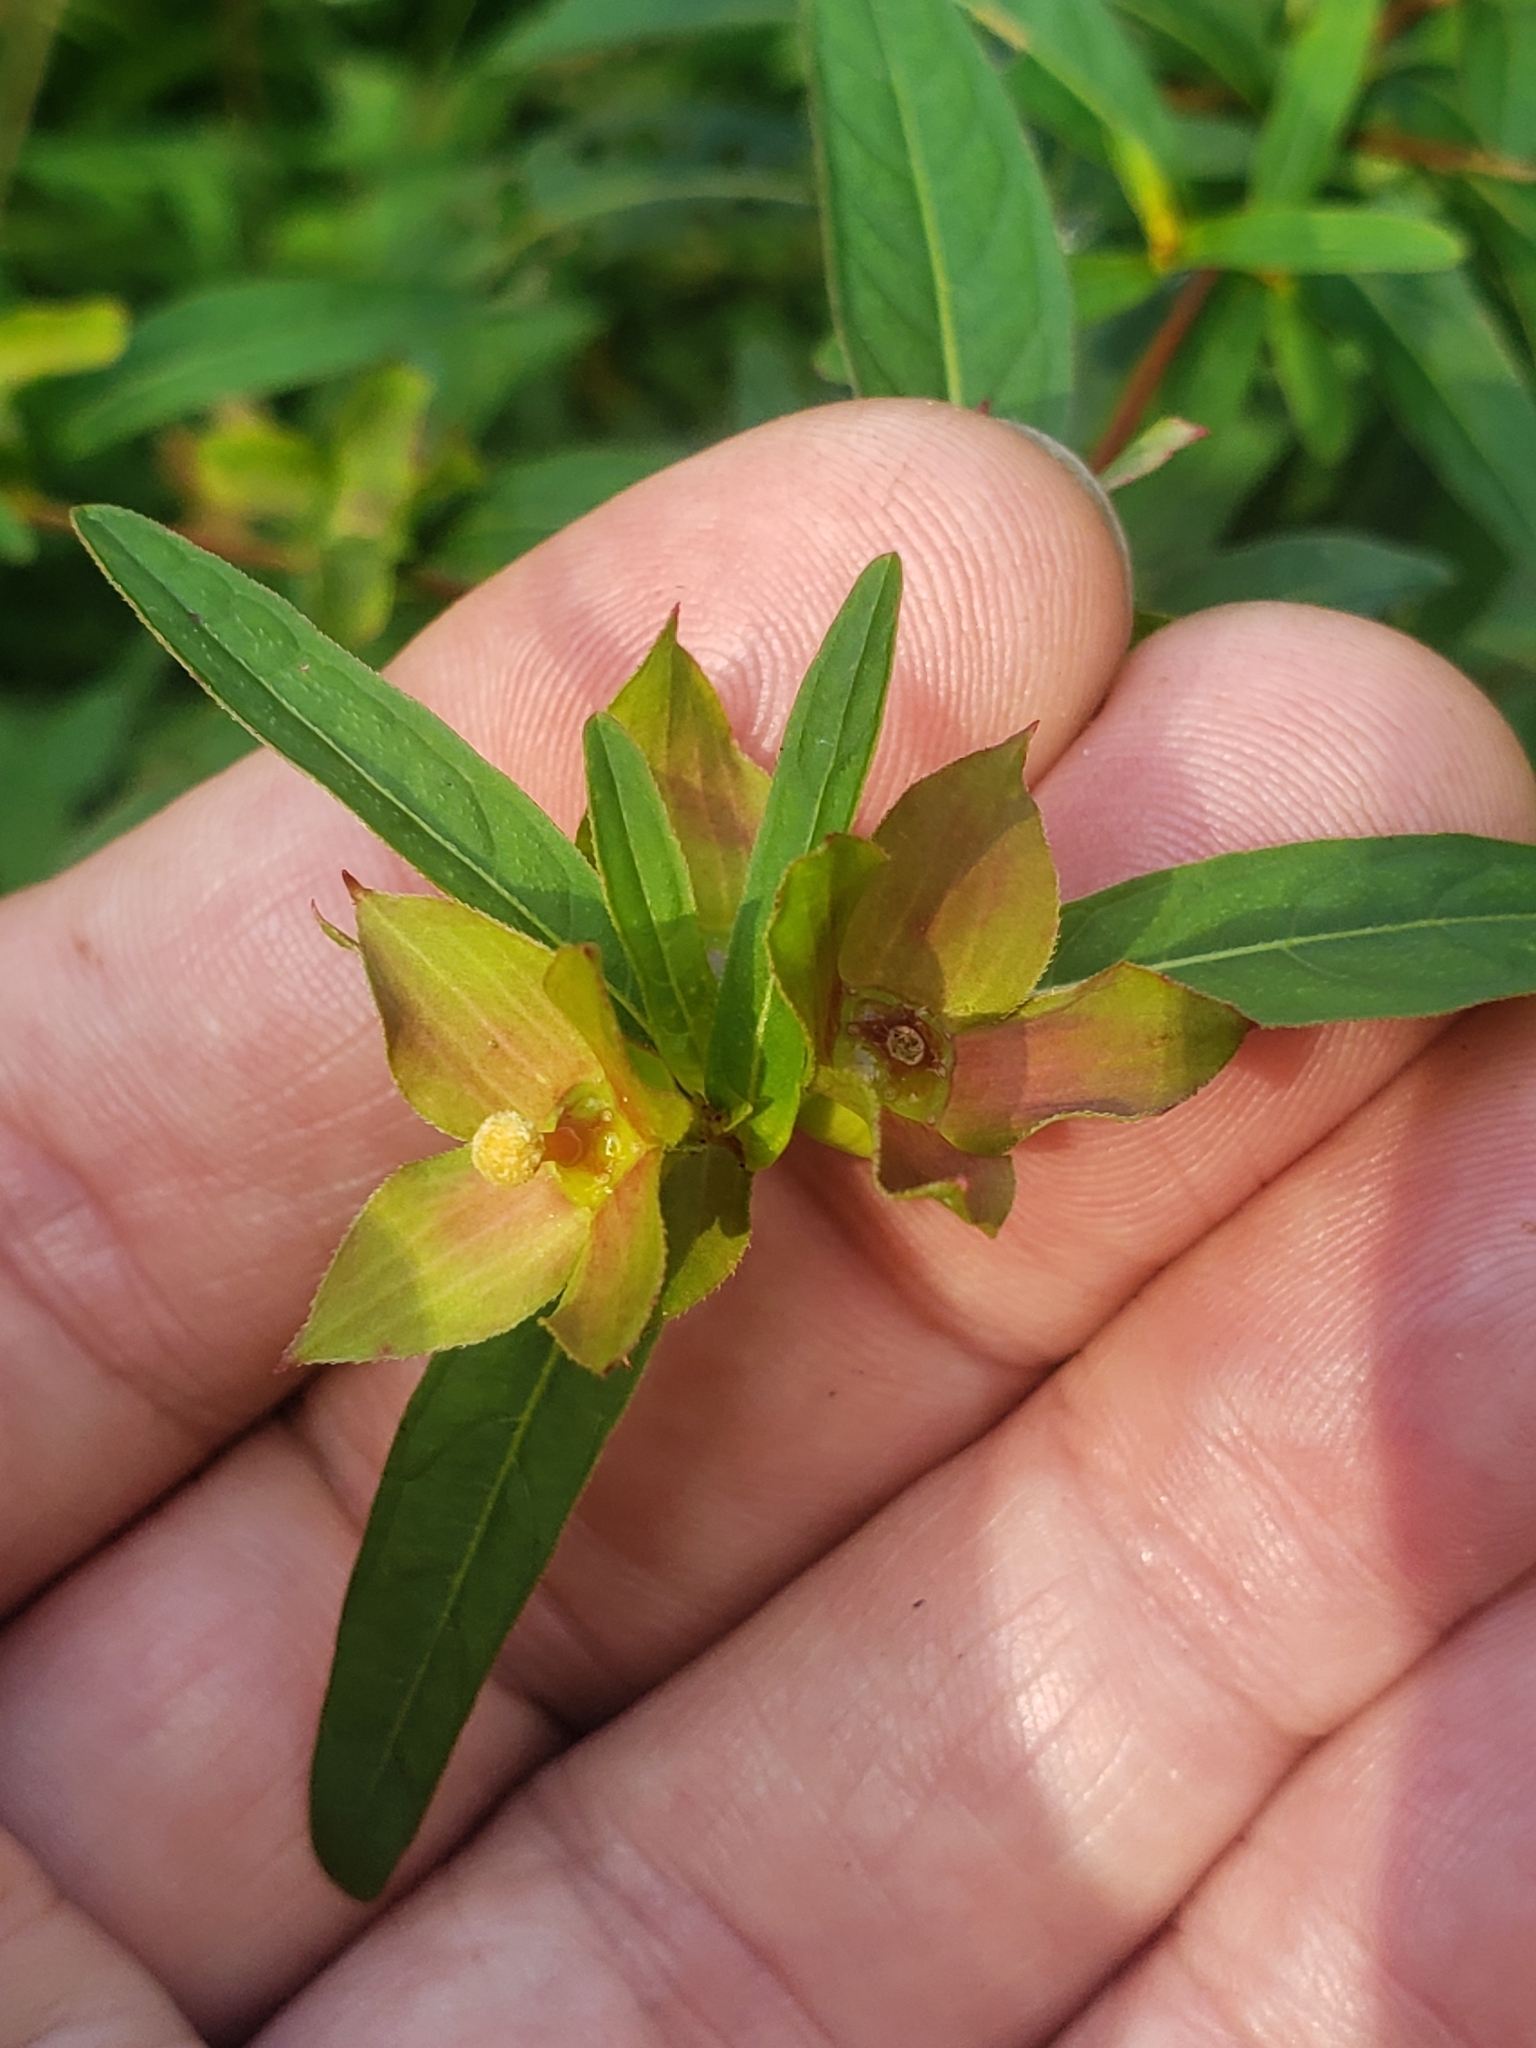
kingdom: Plantae
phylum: Tracheophyta
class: Magnoliopsida
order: Myrtales
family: Onagraceae
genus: Ludwigia
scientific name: Ludwigia alternifolia
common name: Rattlebox
